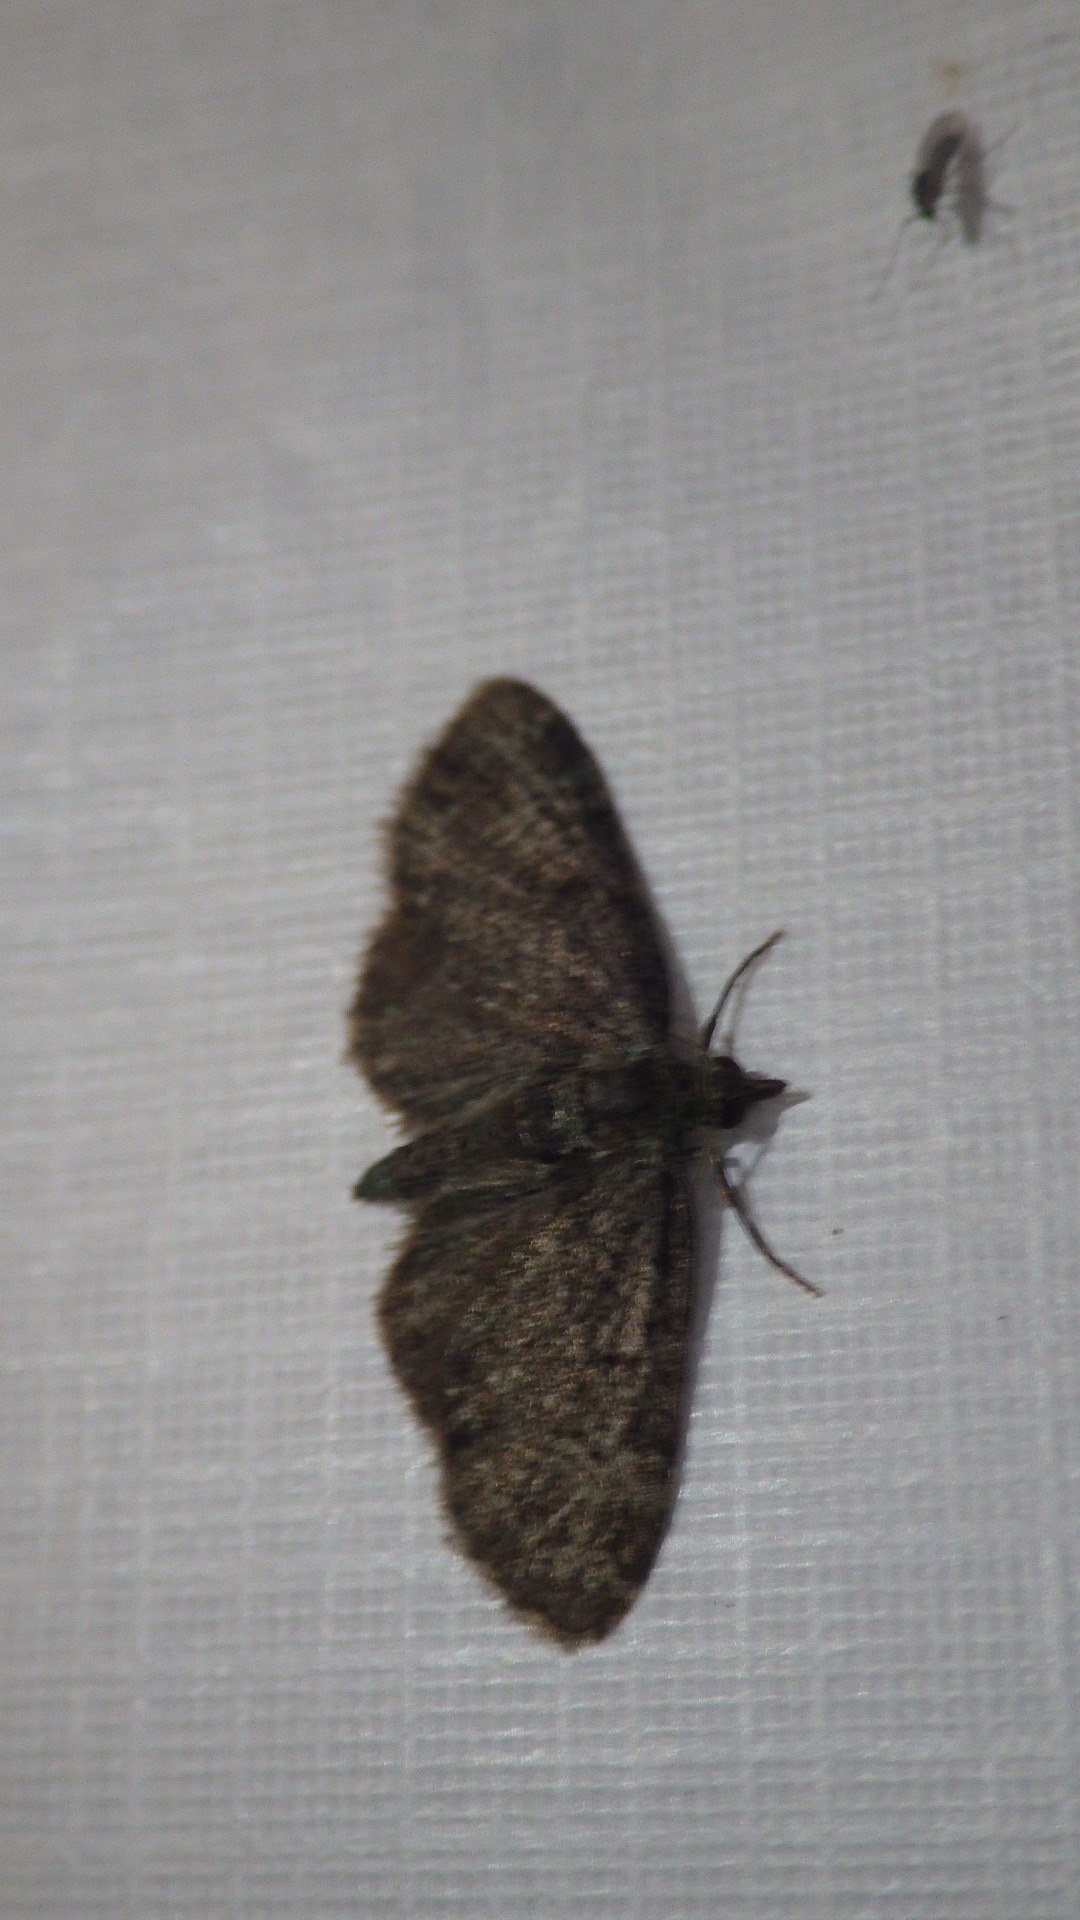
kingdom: Animalia
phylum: Arthropoda
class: Insecta
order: Lepidoptera
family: Geometridae
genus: Pasiphila
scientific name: Pasiphila rectangulata
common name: Green pug
